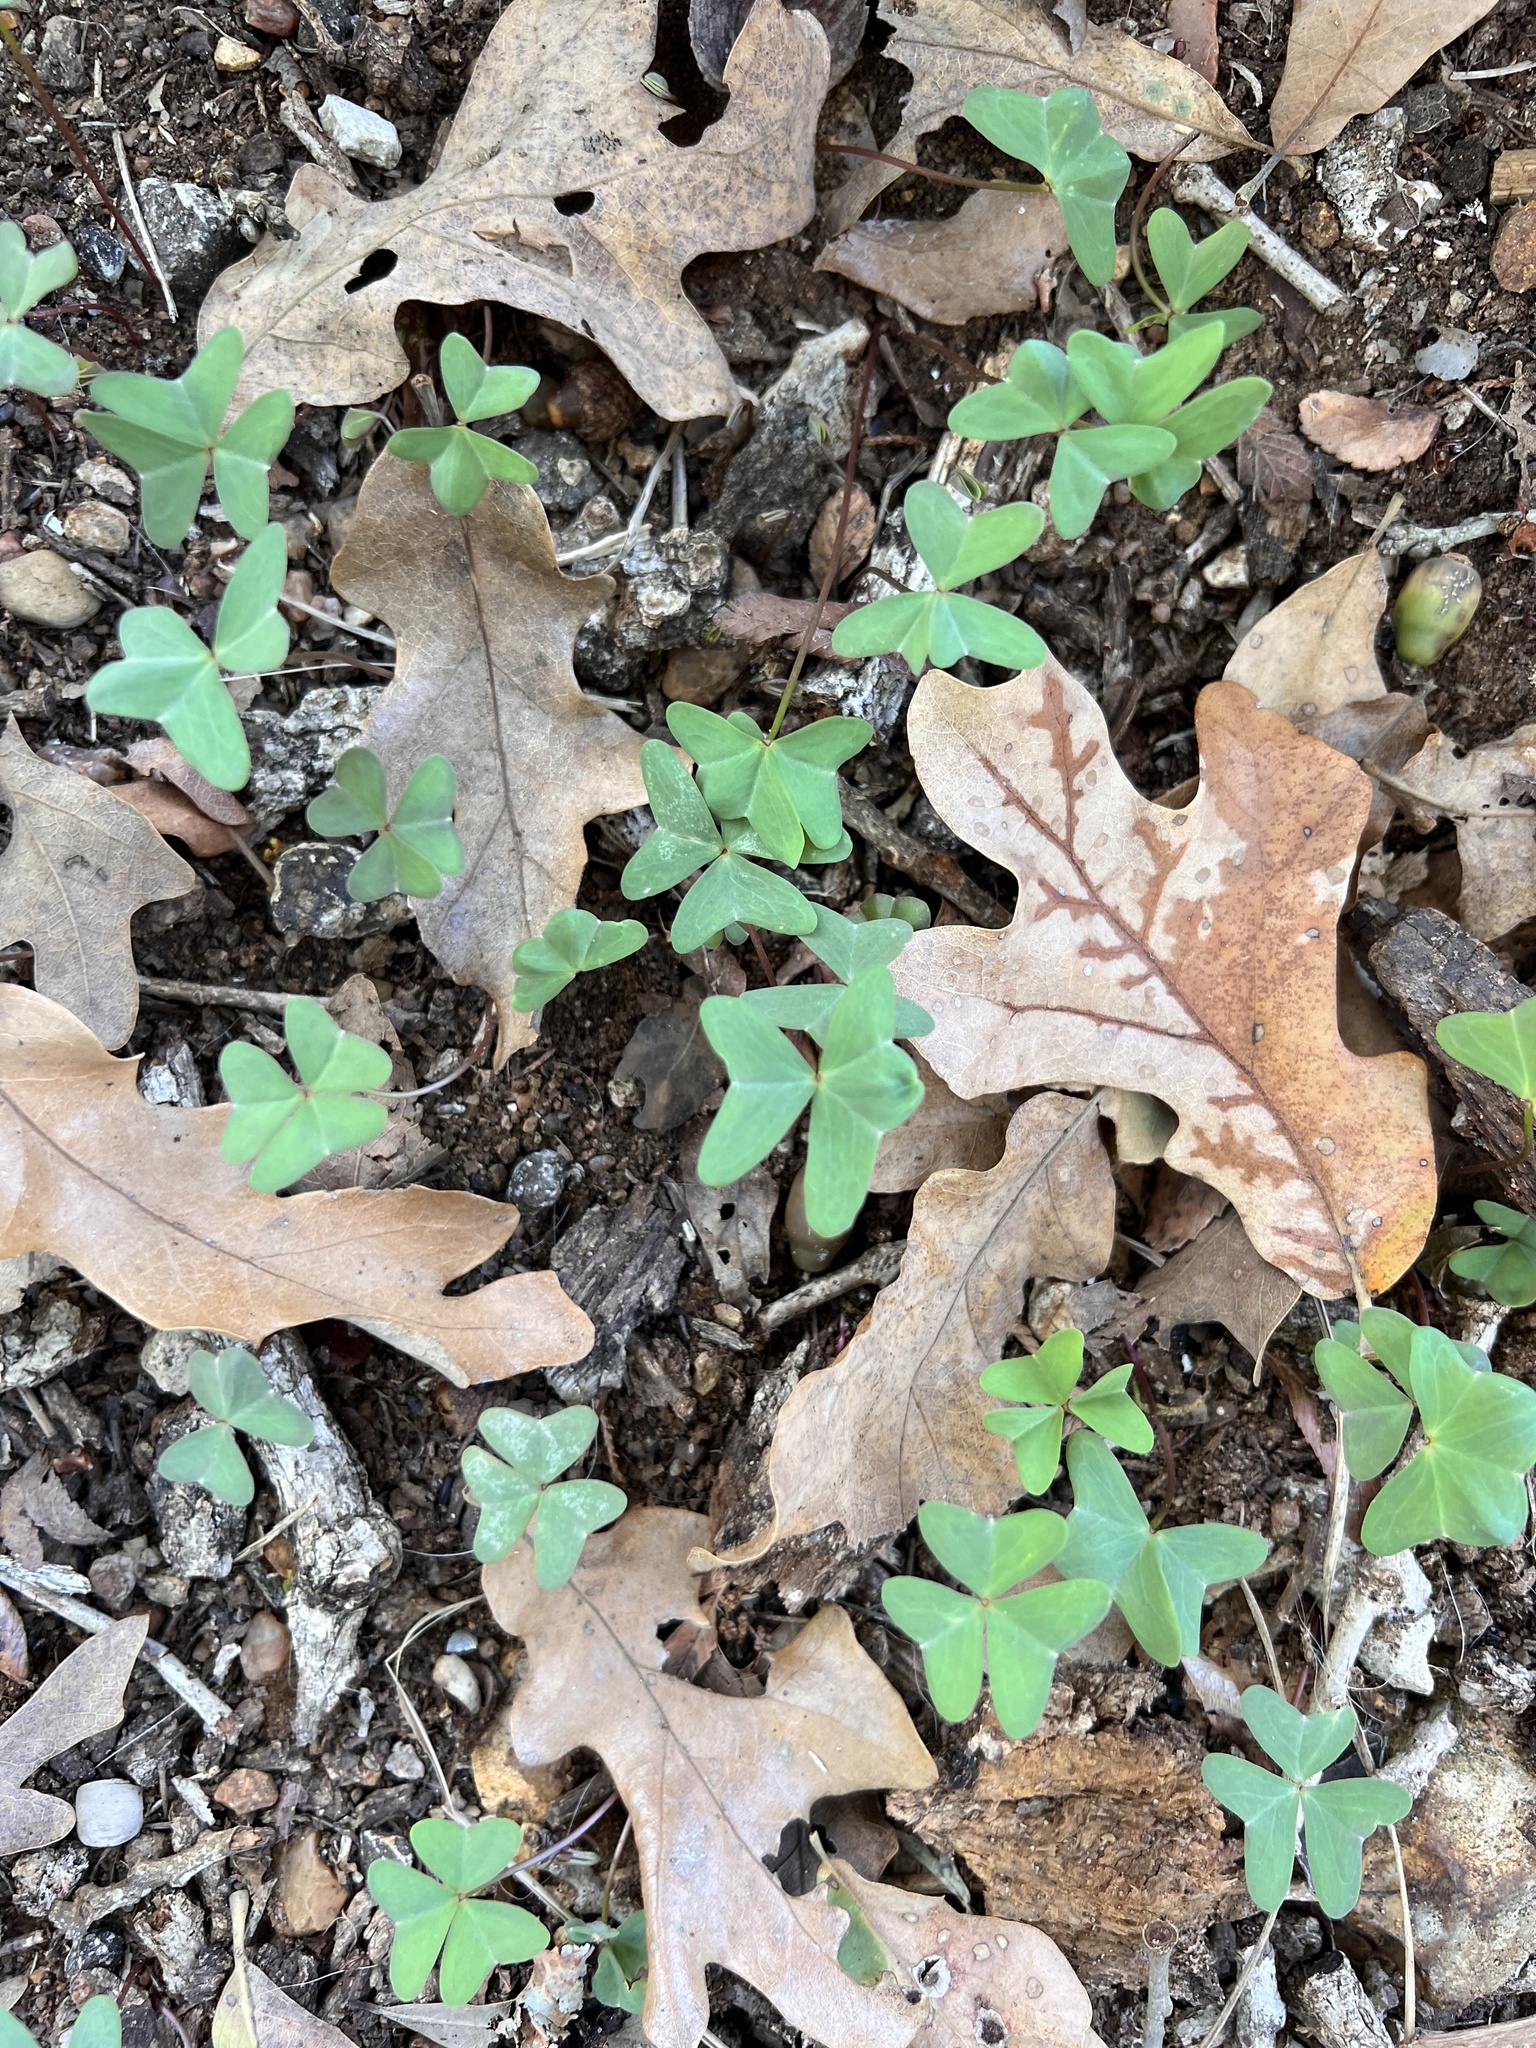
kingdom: Plantae
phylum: Tracheophyta
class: Magnoliopsida
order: Oxalidales
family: Oxalidaceae
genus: Oxalis
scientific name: Oxalis drummondii
